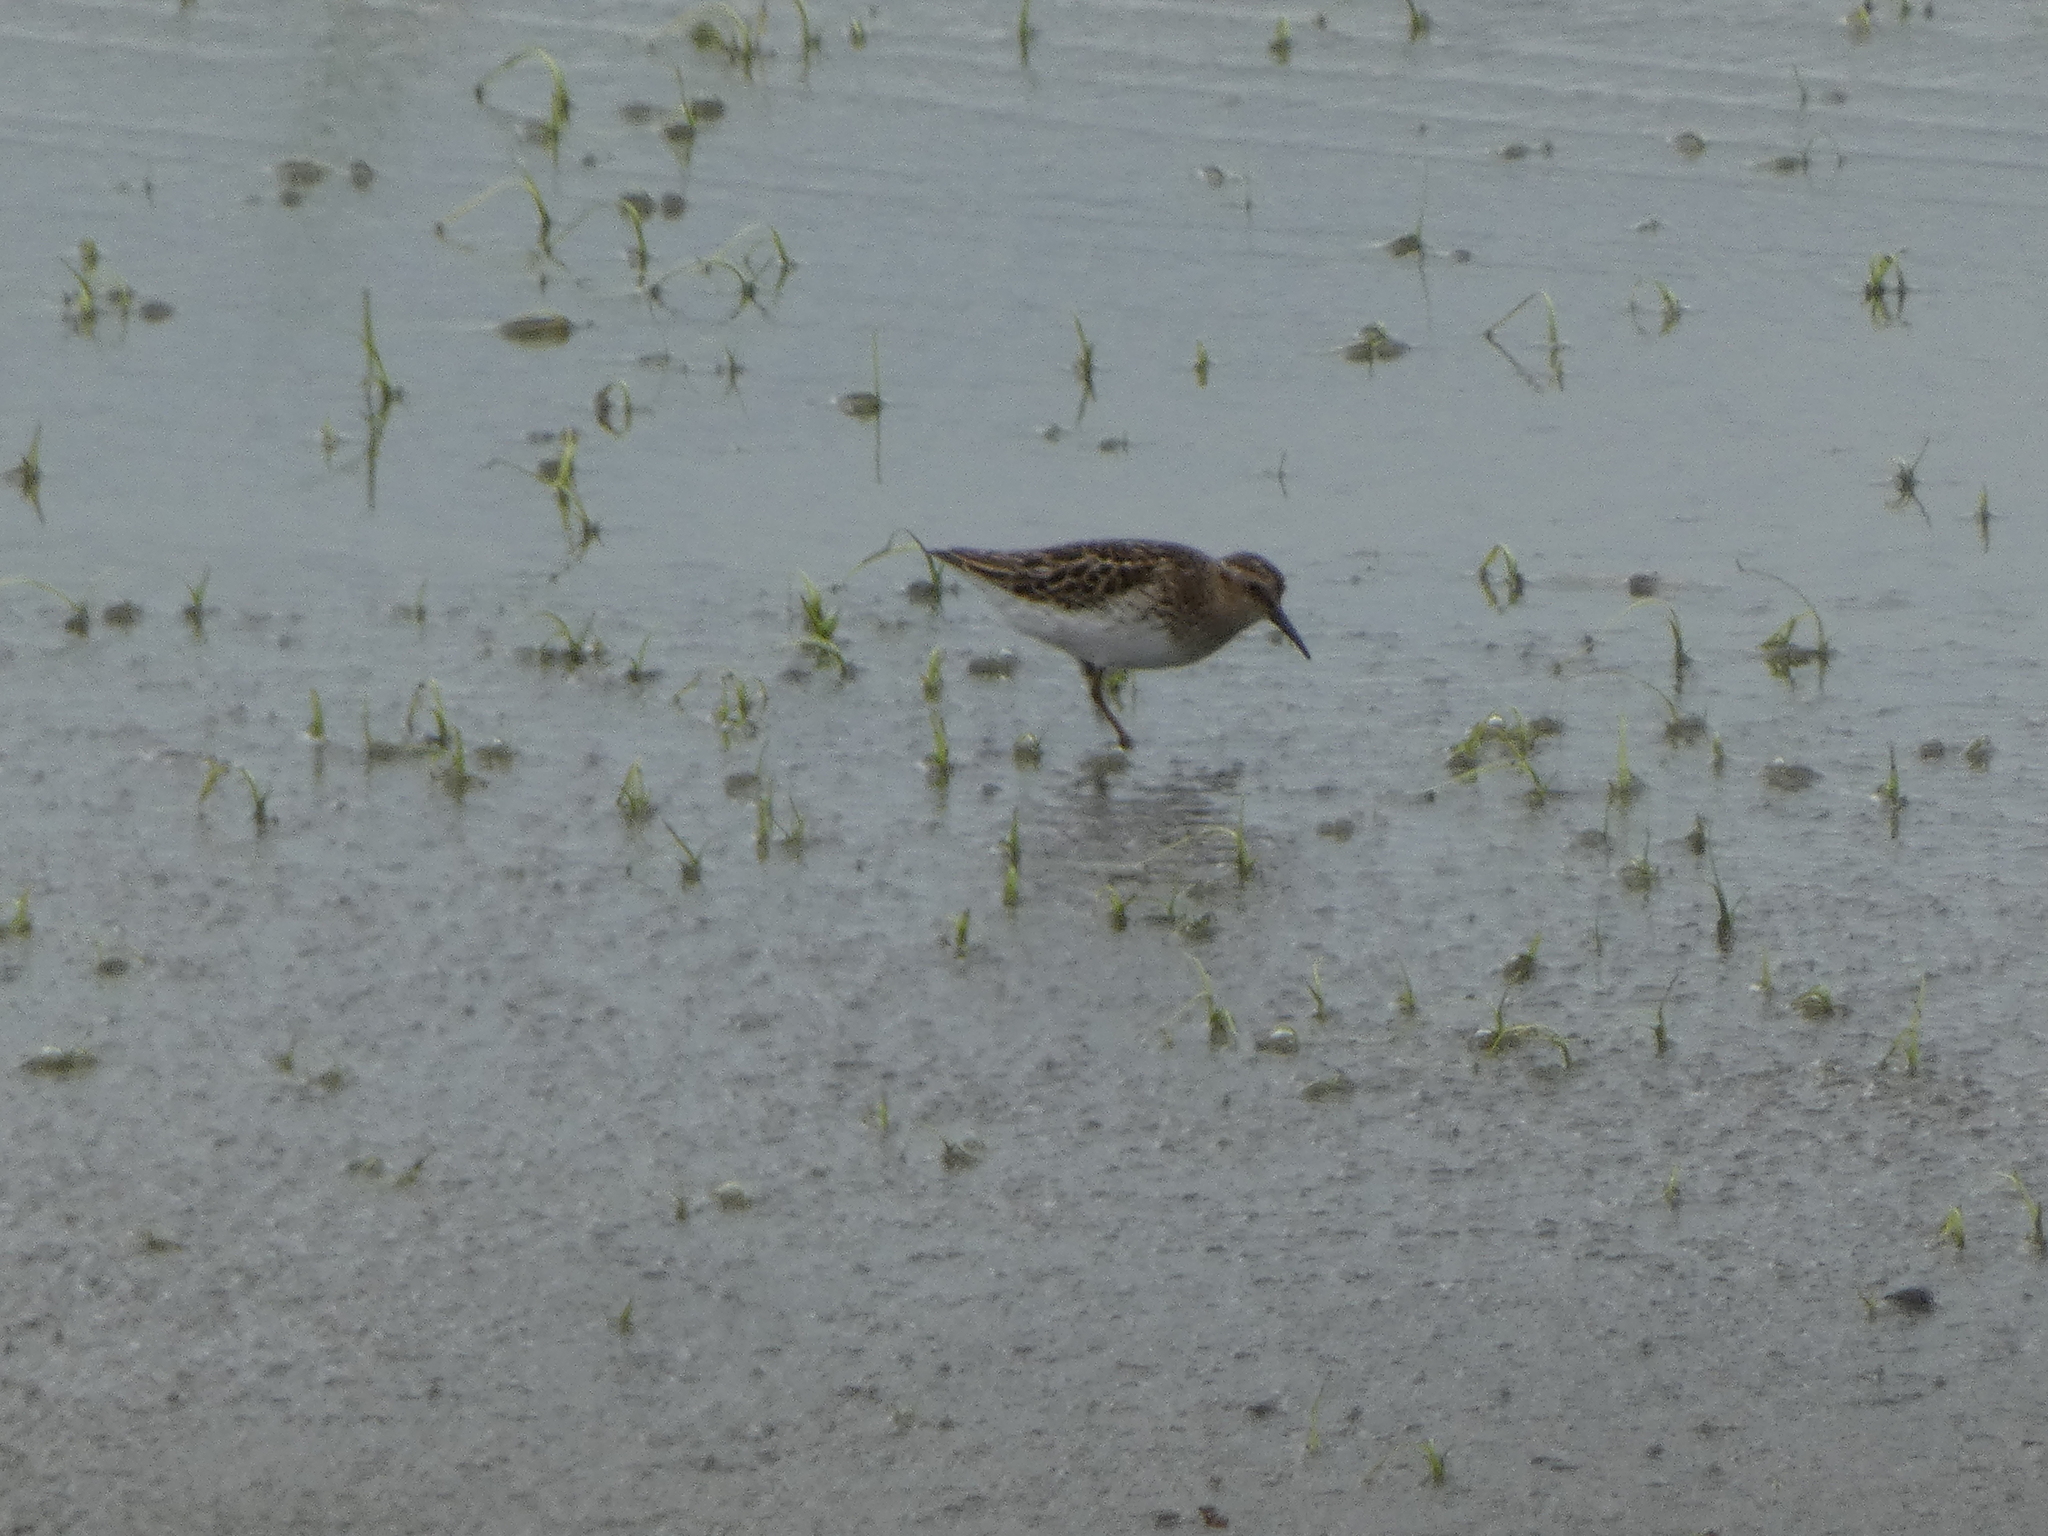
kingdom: Animalia
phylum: Chordata
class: Aves
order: Charadriiformes
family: Scolopacidae
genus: Calidris
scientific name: Calidris minutilla
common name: Least sandpiper
